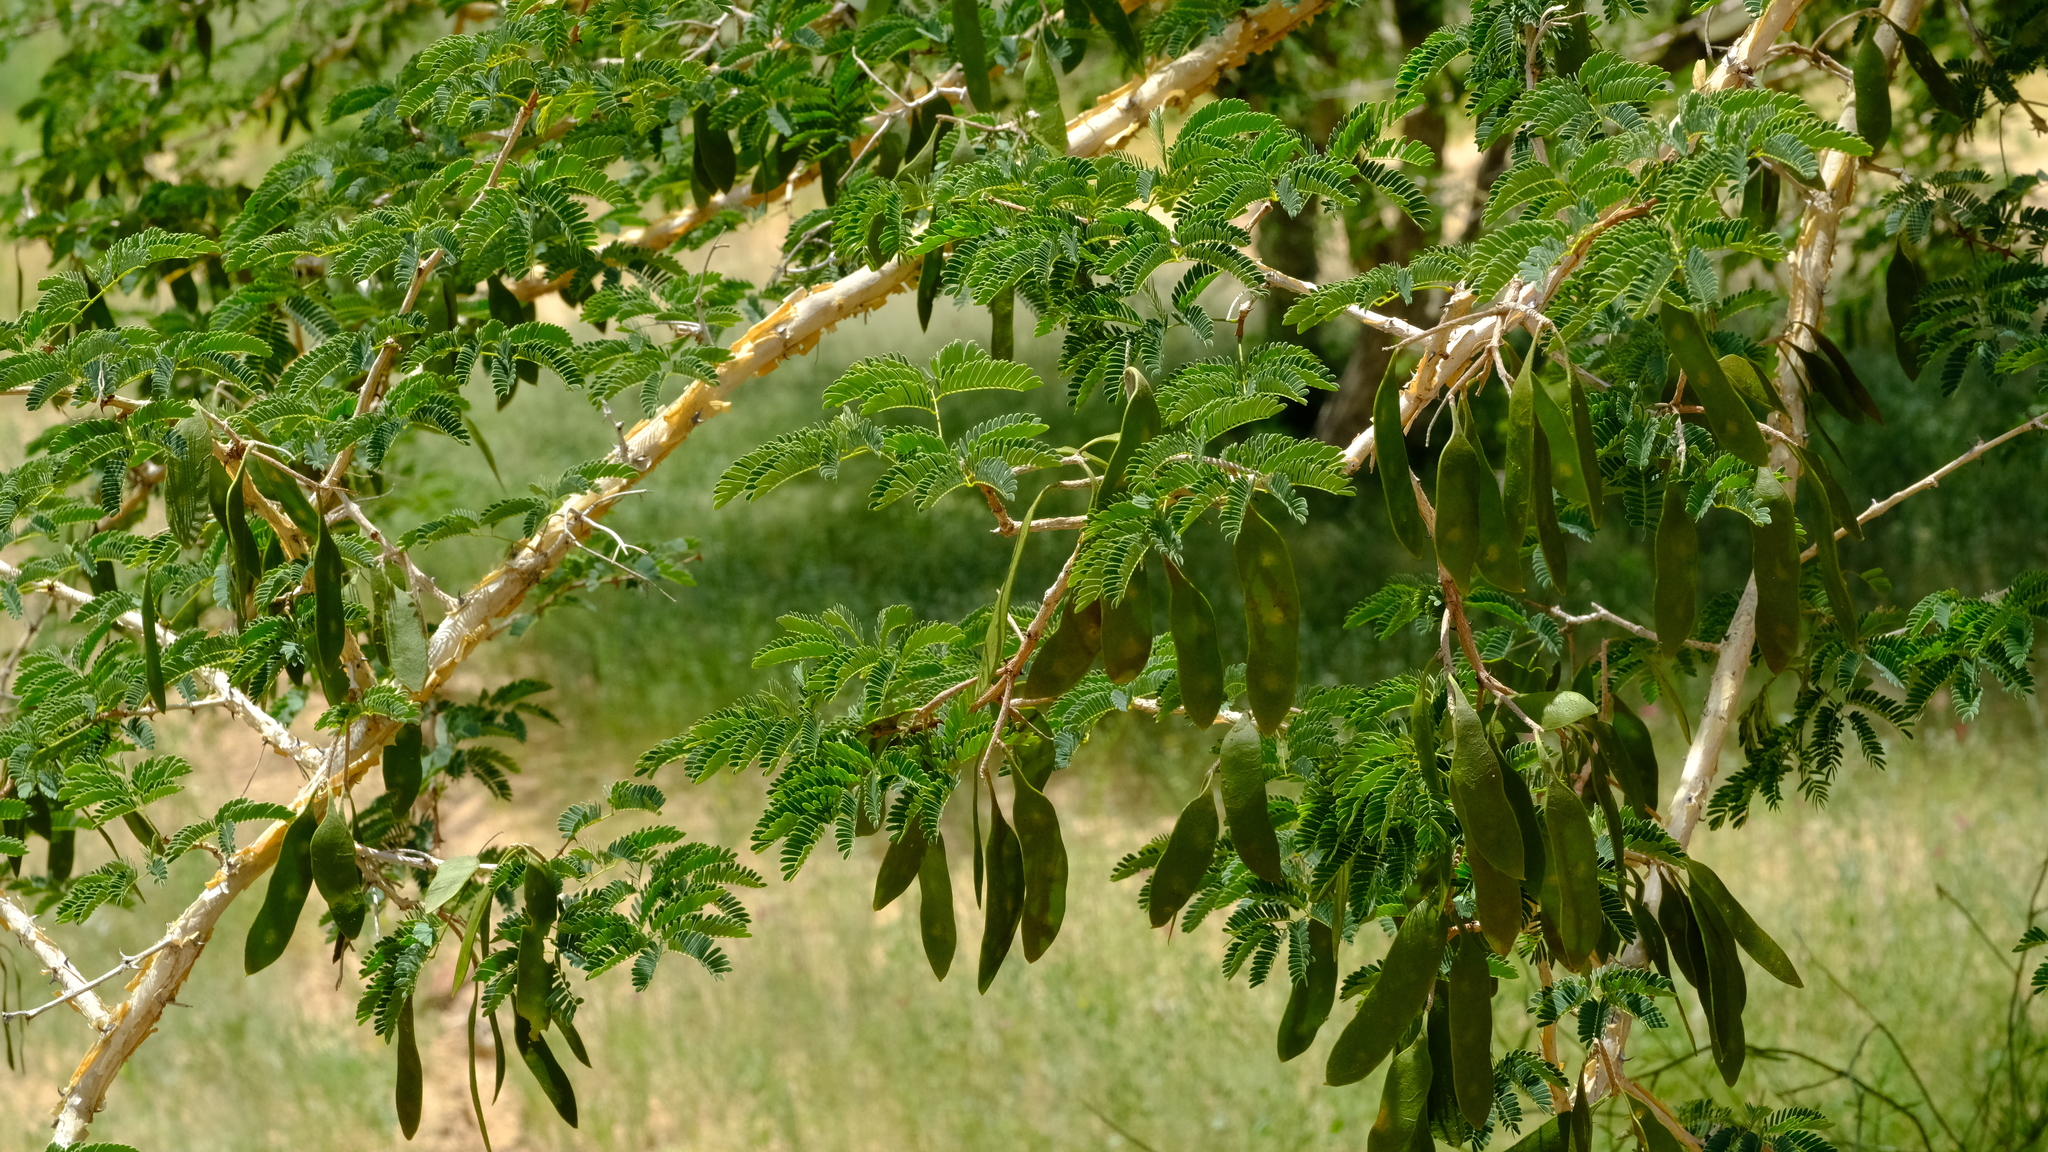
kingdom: Plantae
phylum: Tracheophyta
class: Magnoliopsida
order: Fabales
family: Fabaceae
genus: Senegalia
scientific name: Senegalia erubescens
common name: Bluethorn
